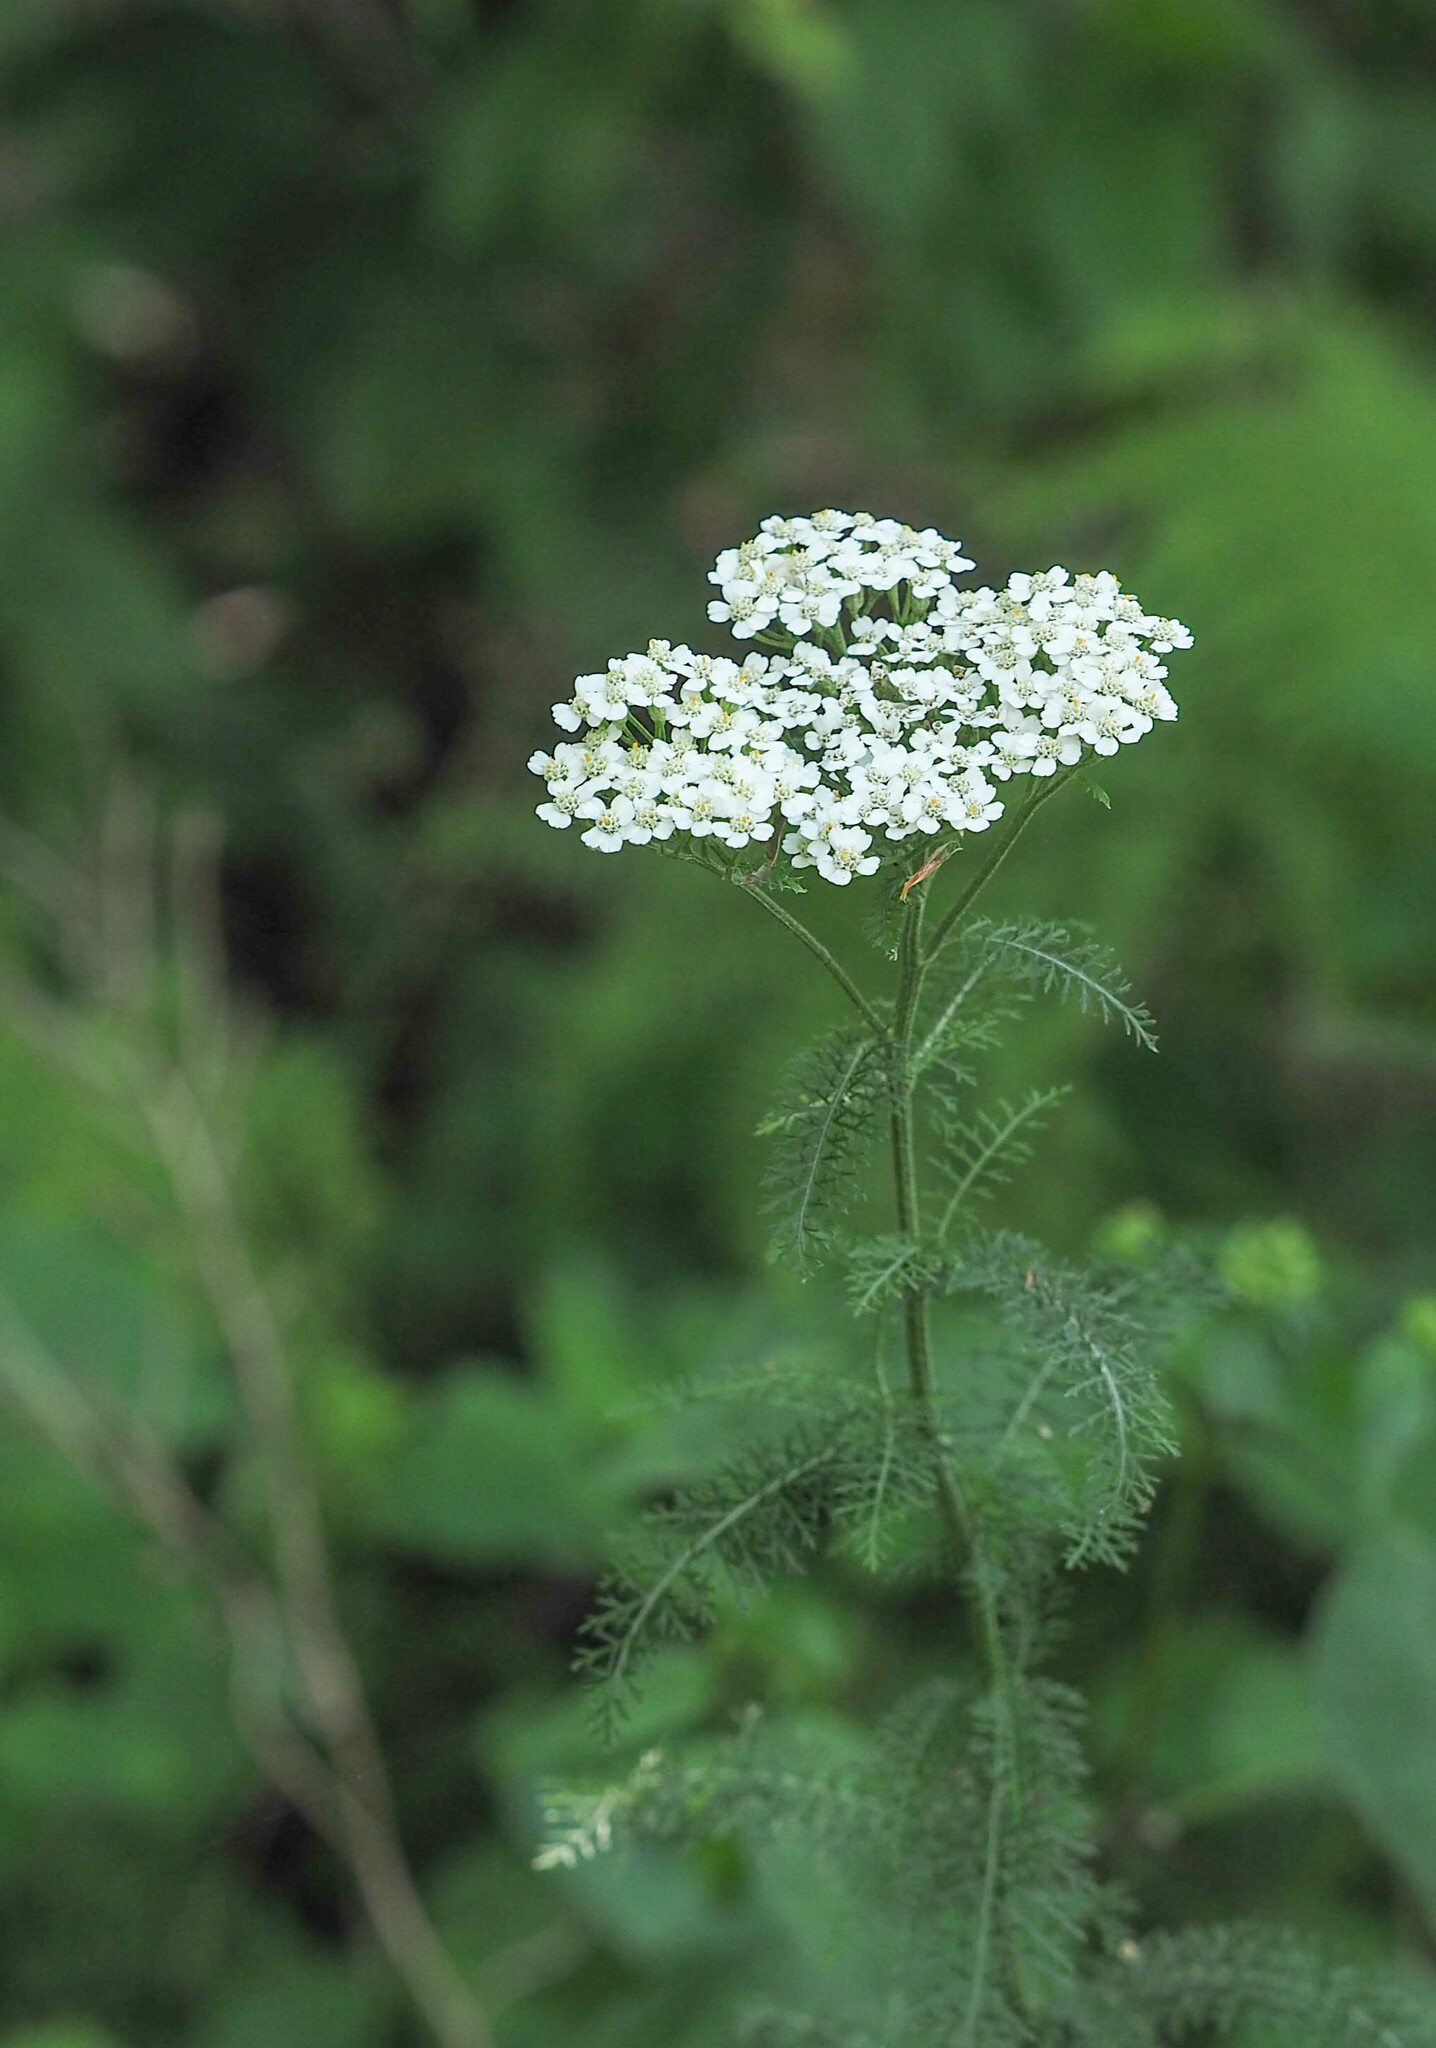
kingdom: Plantae
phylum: Tracheophyta
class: Magnoliopsida
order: Asterales
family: Asteraceae
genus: Achillea
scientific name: Achillea millefolium
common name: Yarrow
